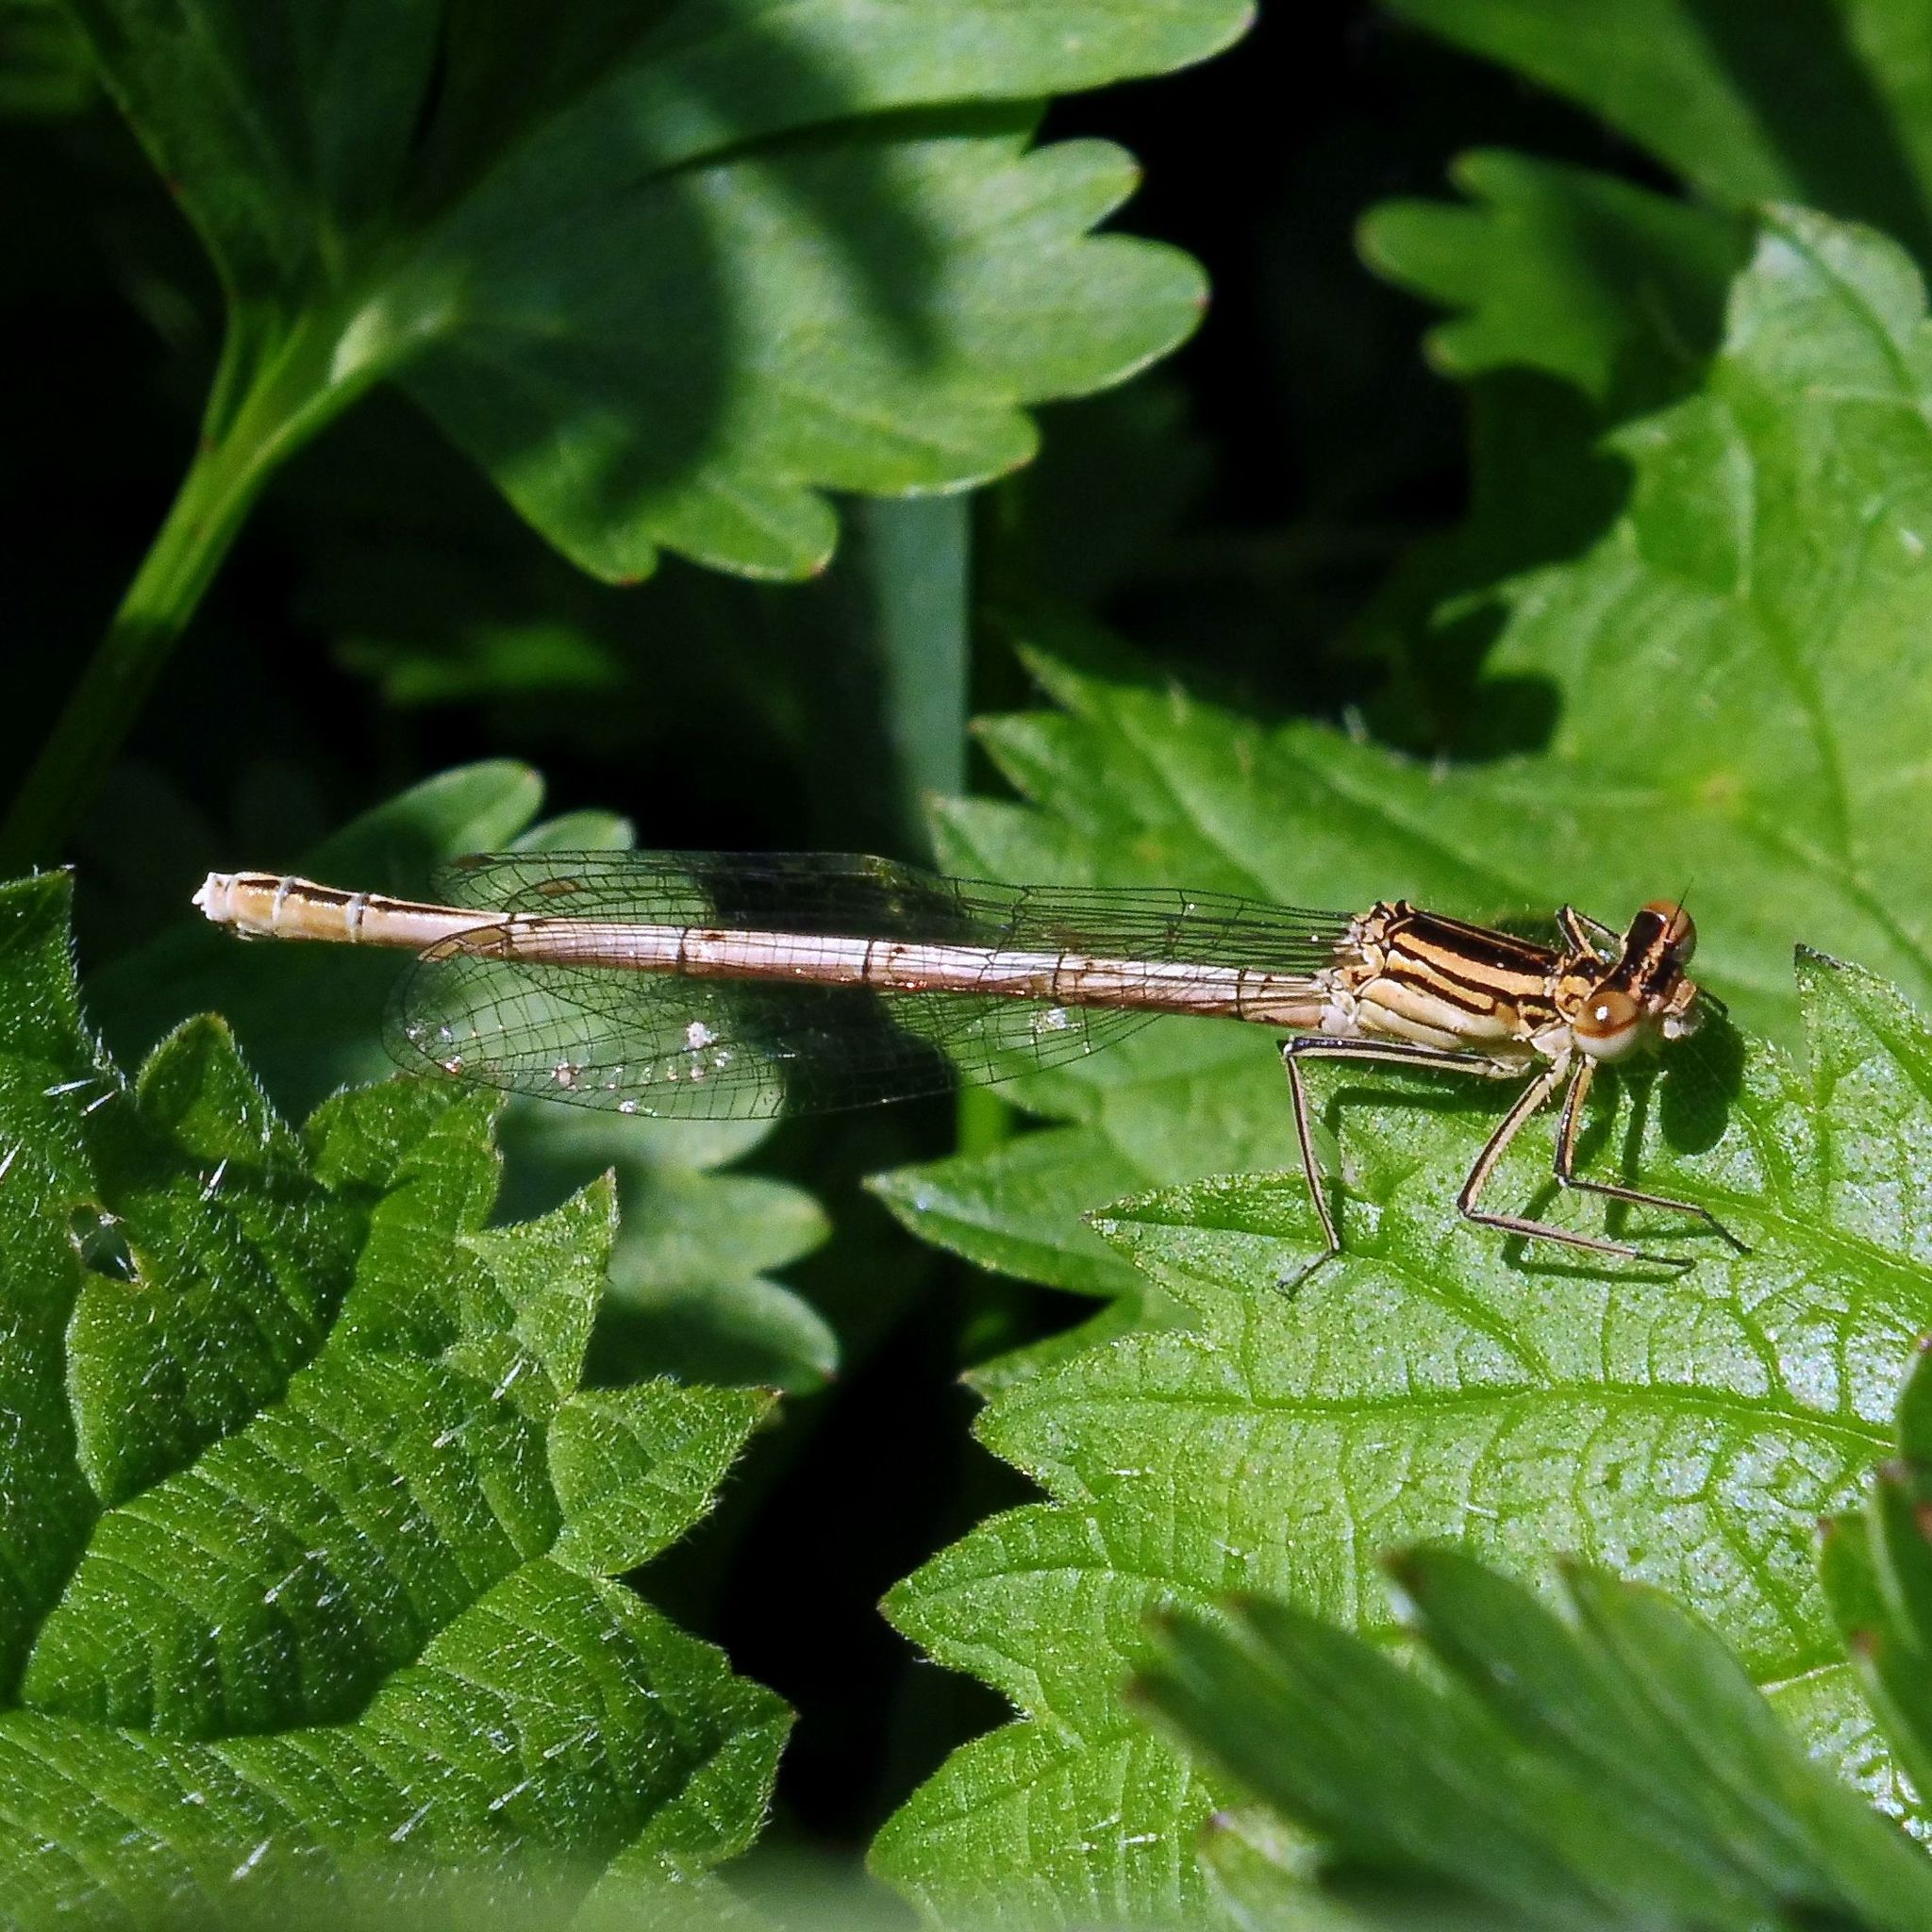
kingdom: Animalia
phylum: Arthropoda
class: Insecta
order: Odonata
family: Platycnemididae
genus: Platycnemis
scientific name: Platycnemis pennipes
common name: White-legged damselfly
